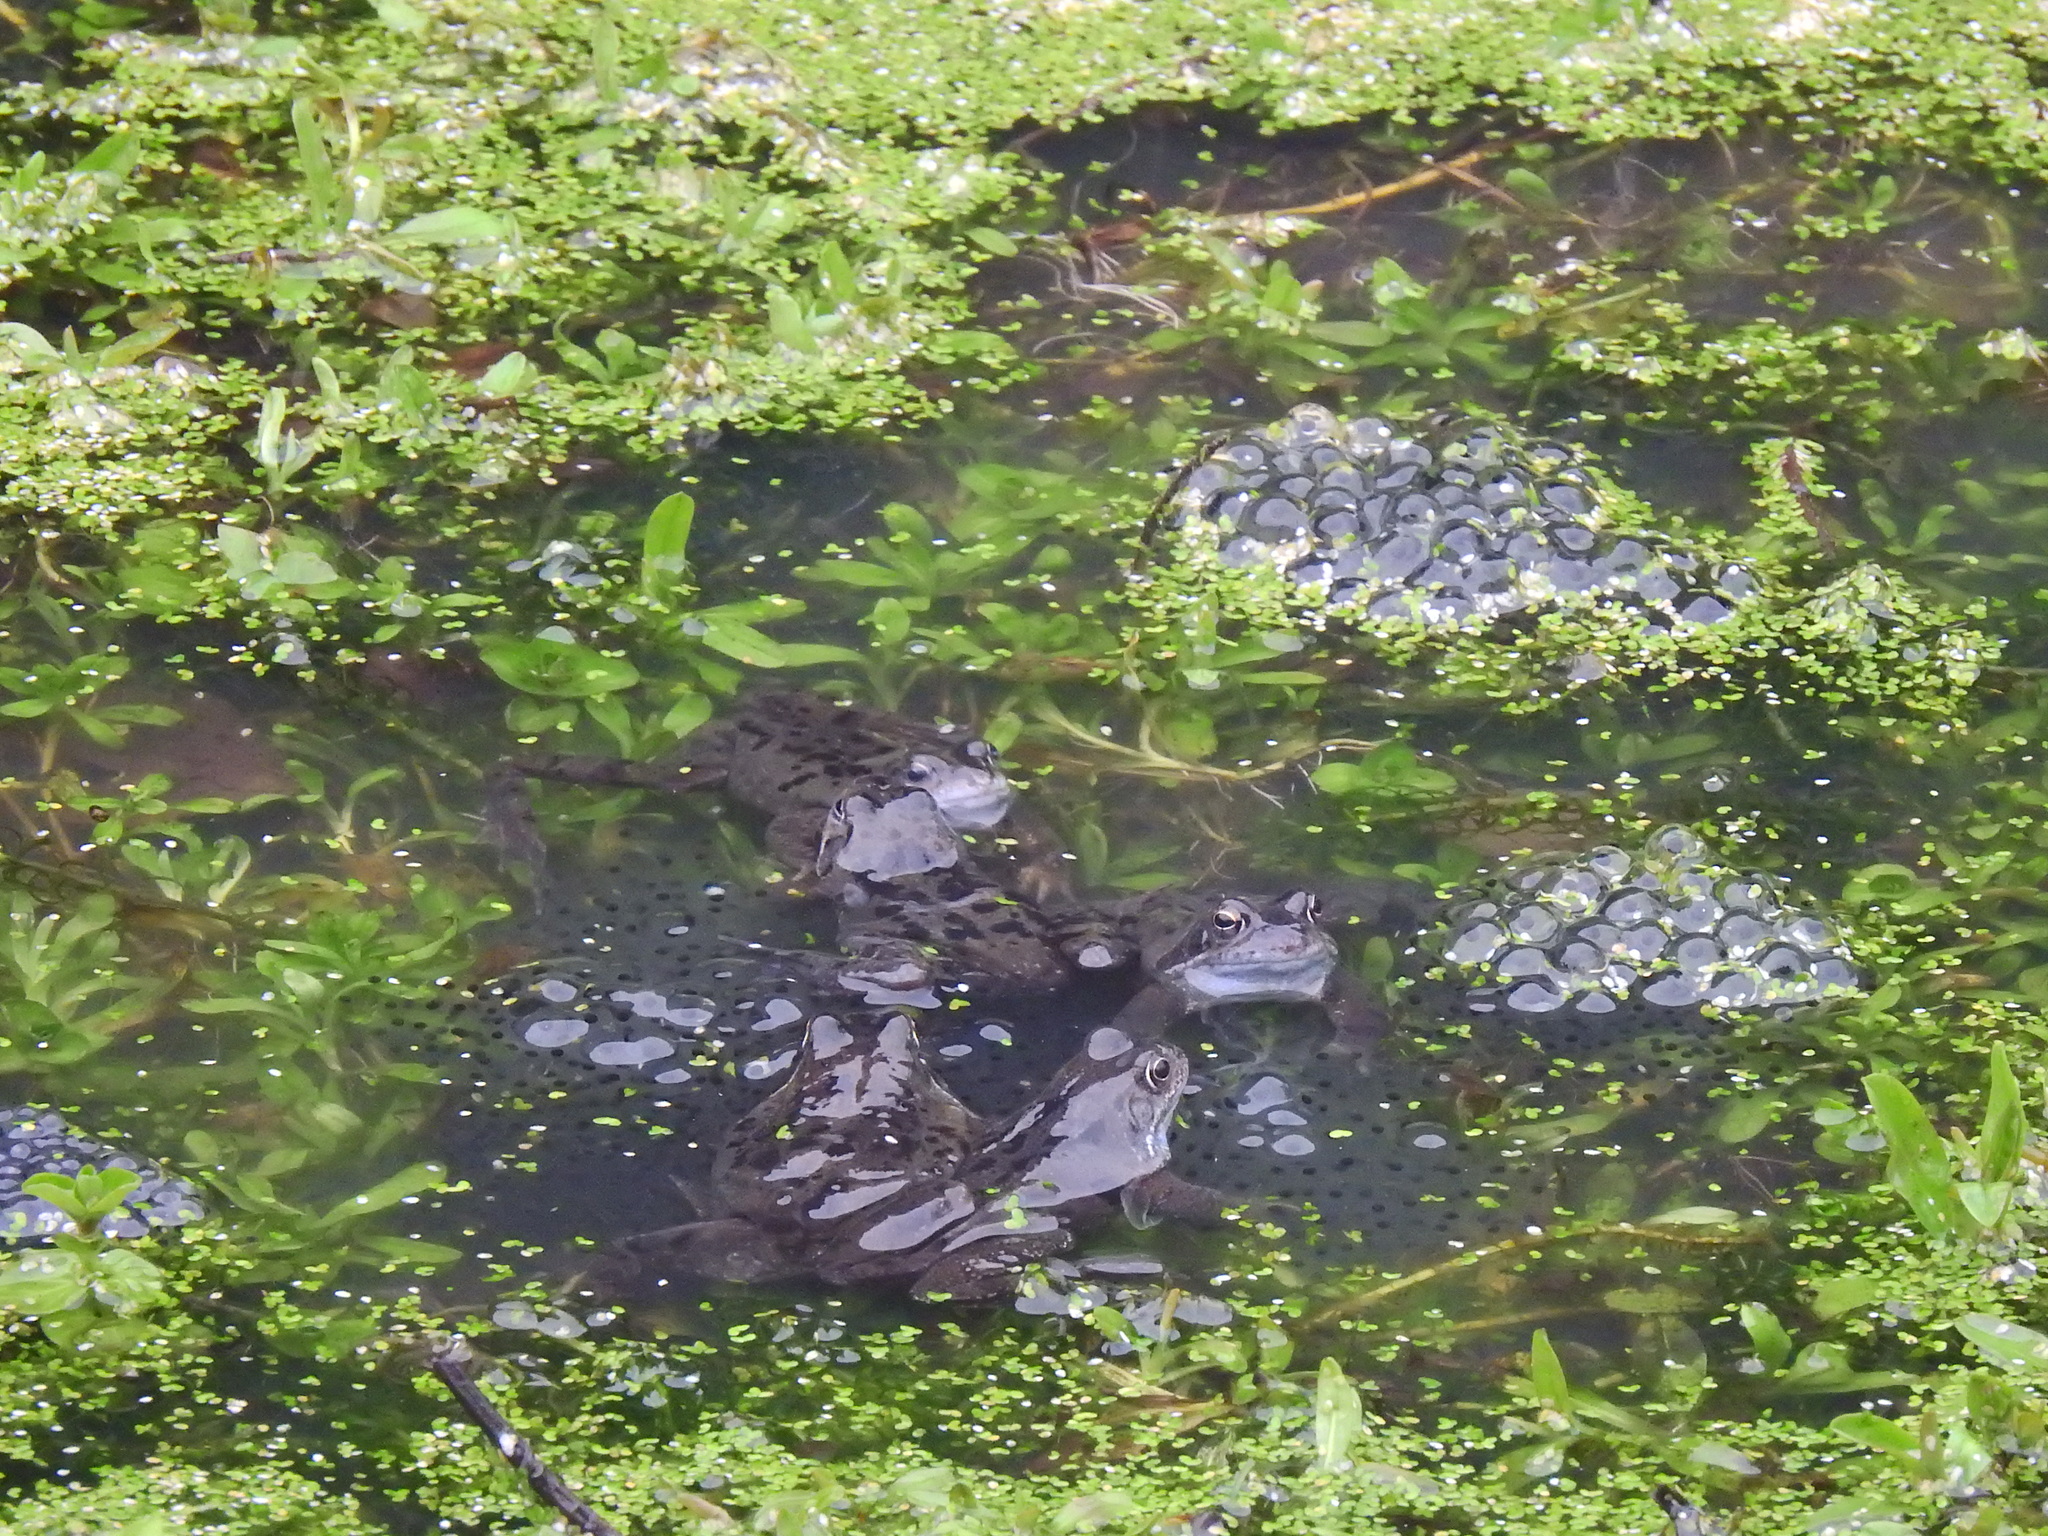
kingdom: Animalia
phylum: Chordata
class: Amphibia
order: Anura
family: Ranidae
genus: Rana
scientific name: Rana temporaria
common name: Common frog
